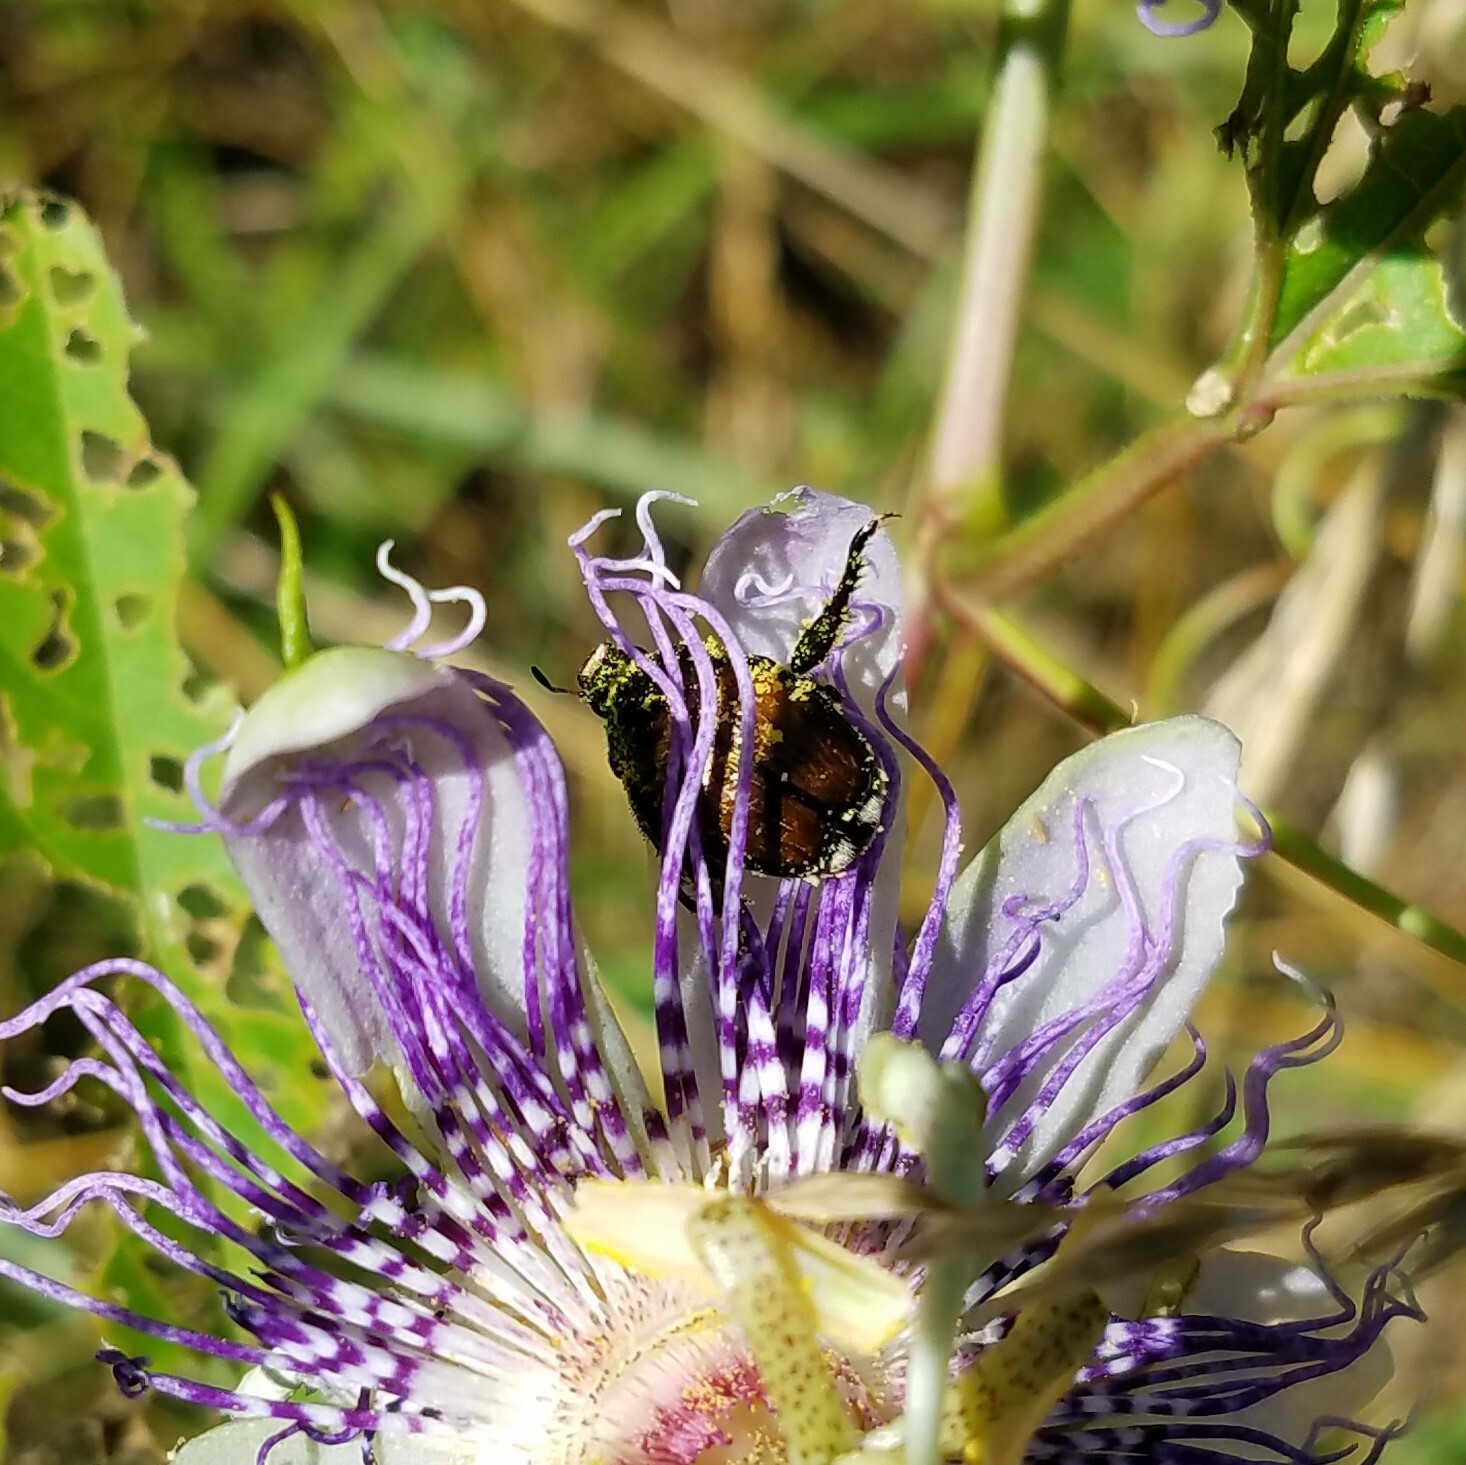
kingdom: Animalia
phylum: Arthropoda
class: Insecta
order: Coleoptera
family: Scarabaeidae
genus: Popillia
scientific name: Popillia japonica
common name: Japanese beetle
